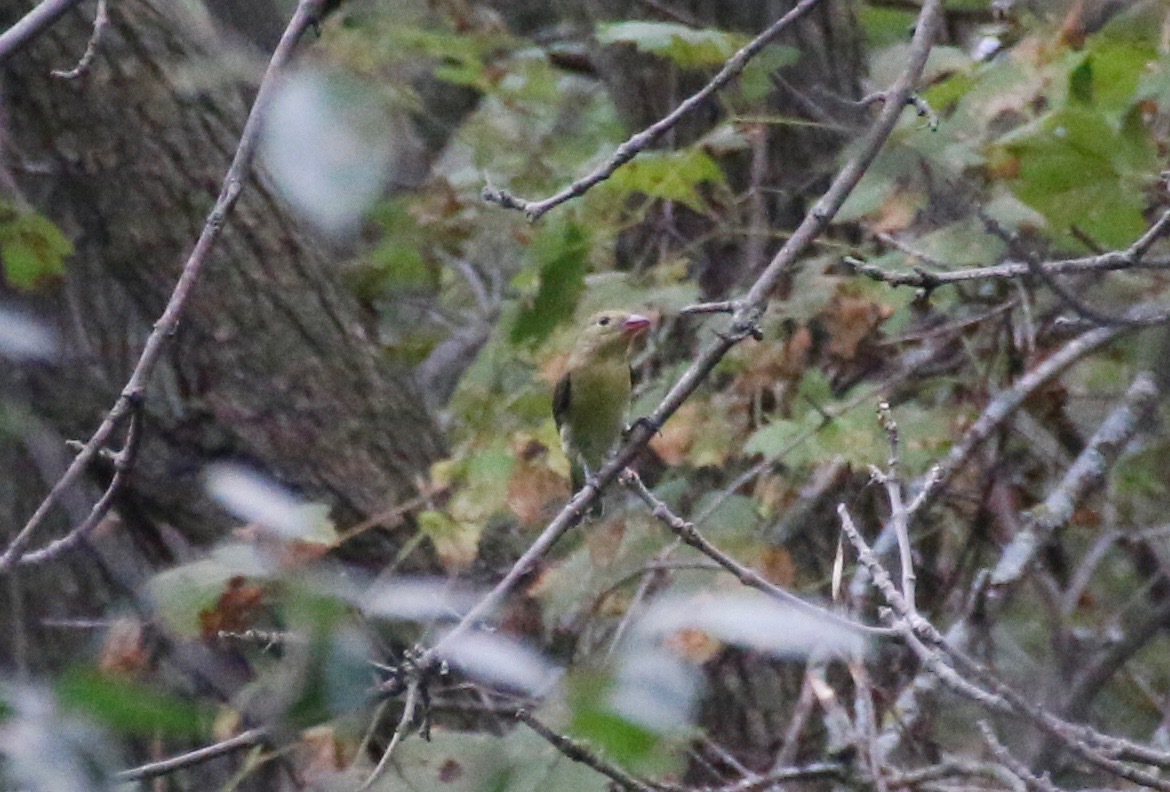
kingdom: Animalia
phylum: Chordata
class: Aves
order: Passeriformes
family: Cardinalidae
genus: Piranga
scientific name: Piranga olivacea
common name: Scarlet tanager
